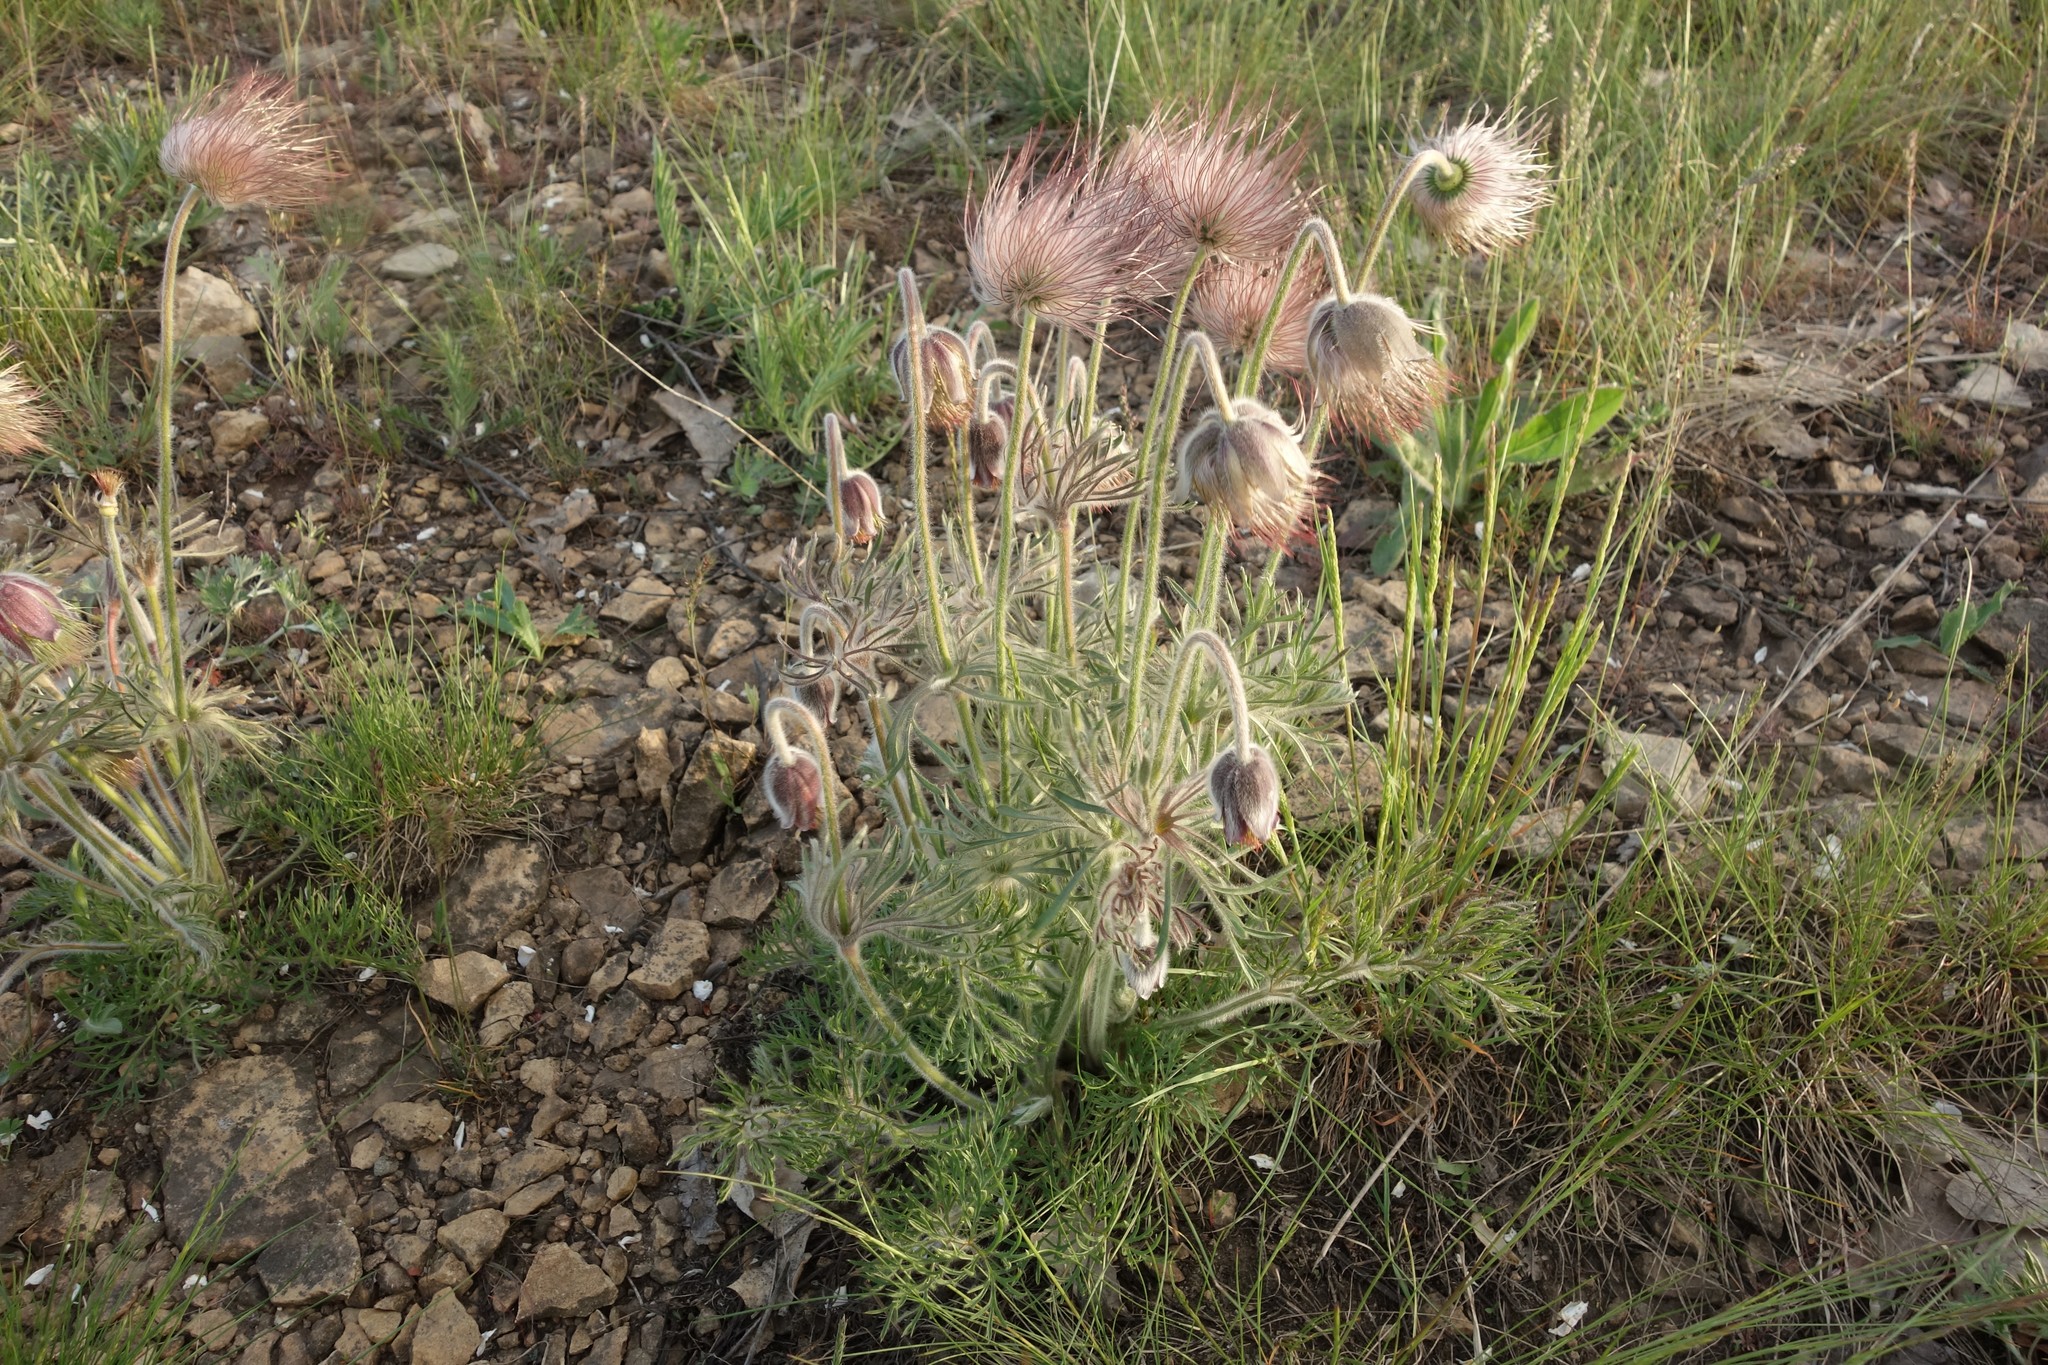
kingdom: Plantae
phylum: Tracheophyta
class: Magnoliopsida
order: Ranunculales
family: Ranunculaceae
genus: Pulsatilla
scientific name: Pulsatilla pratensis
